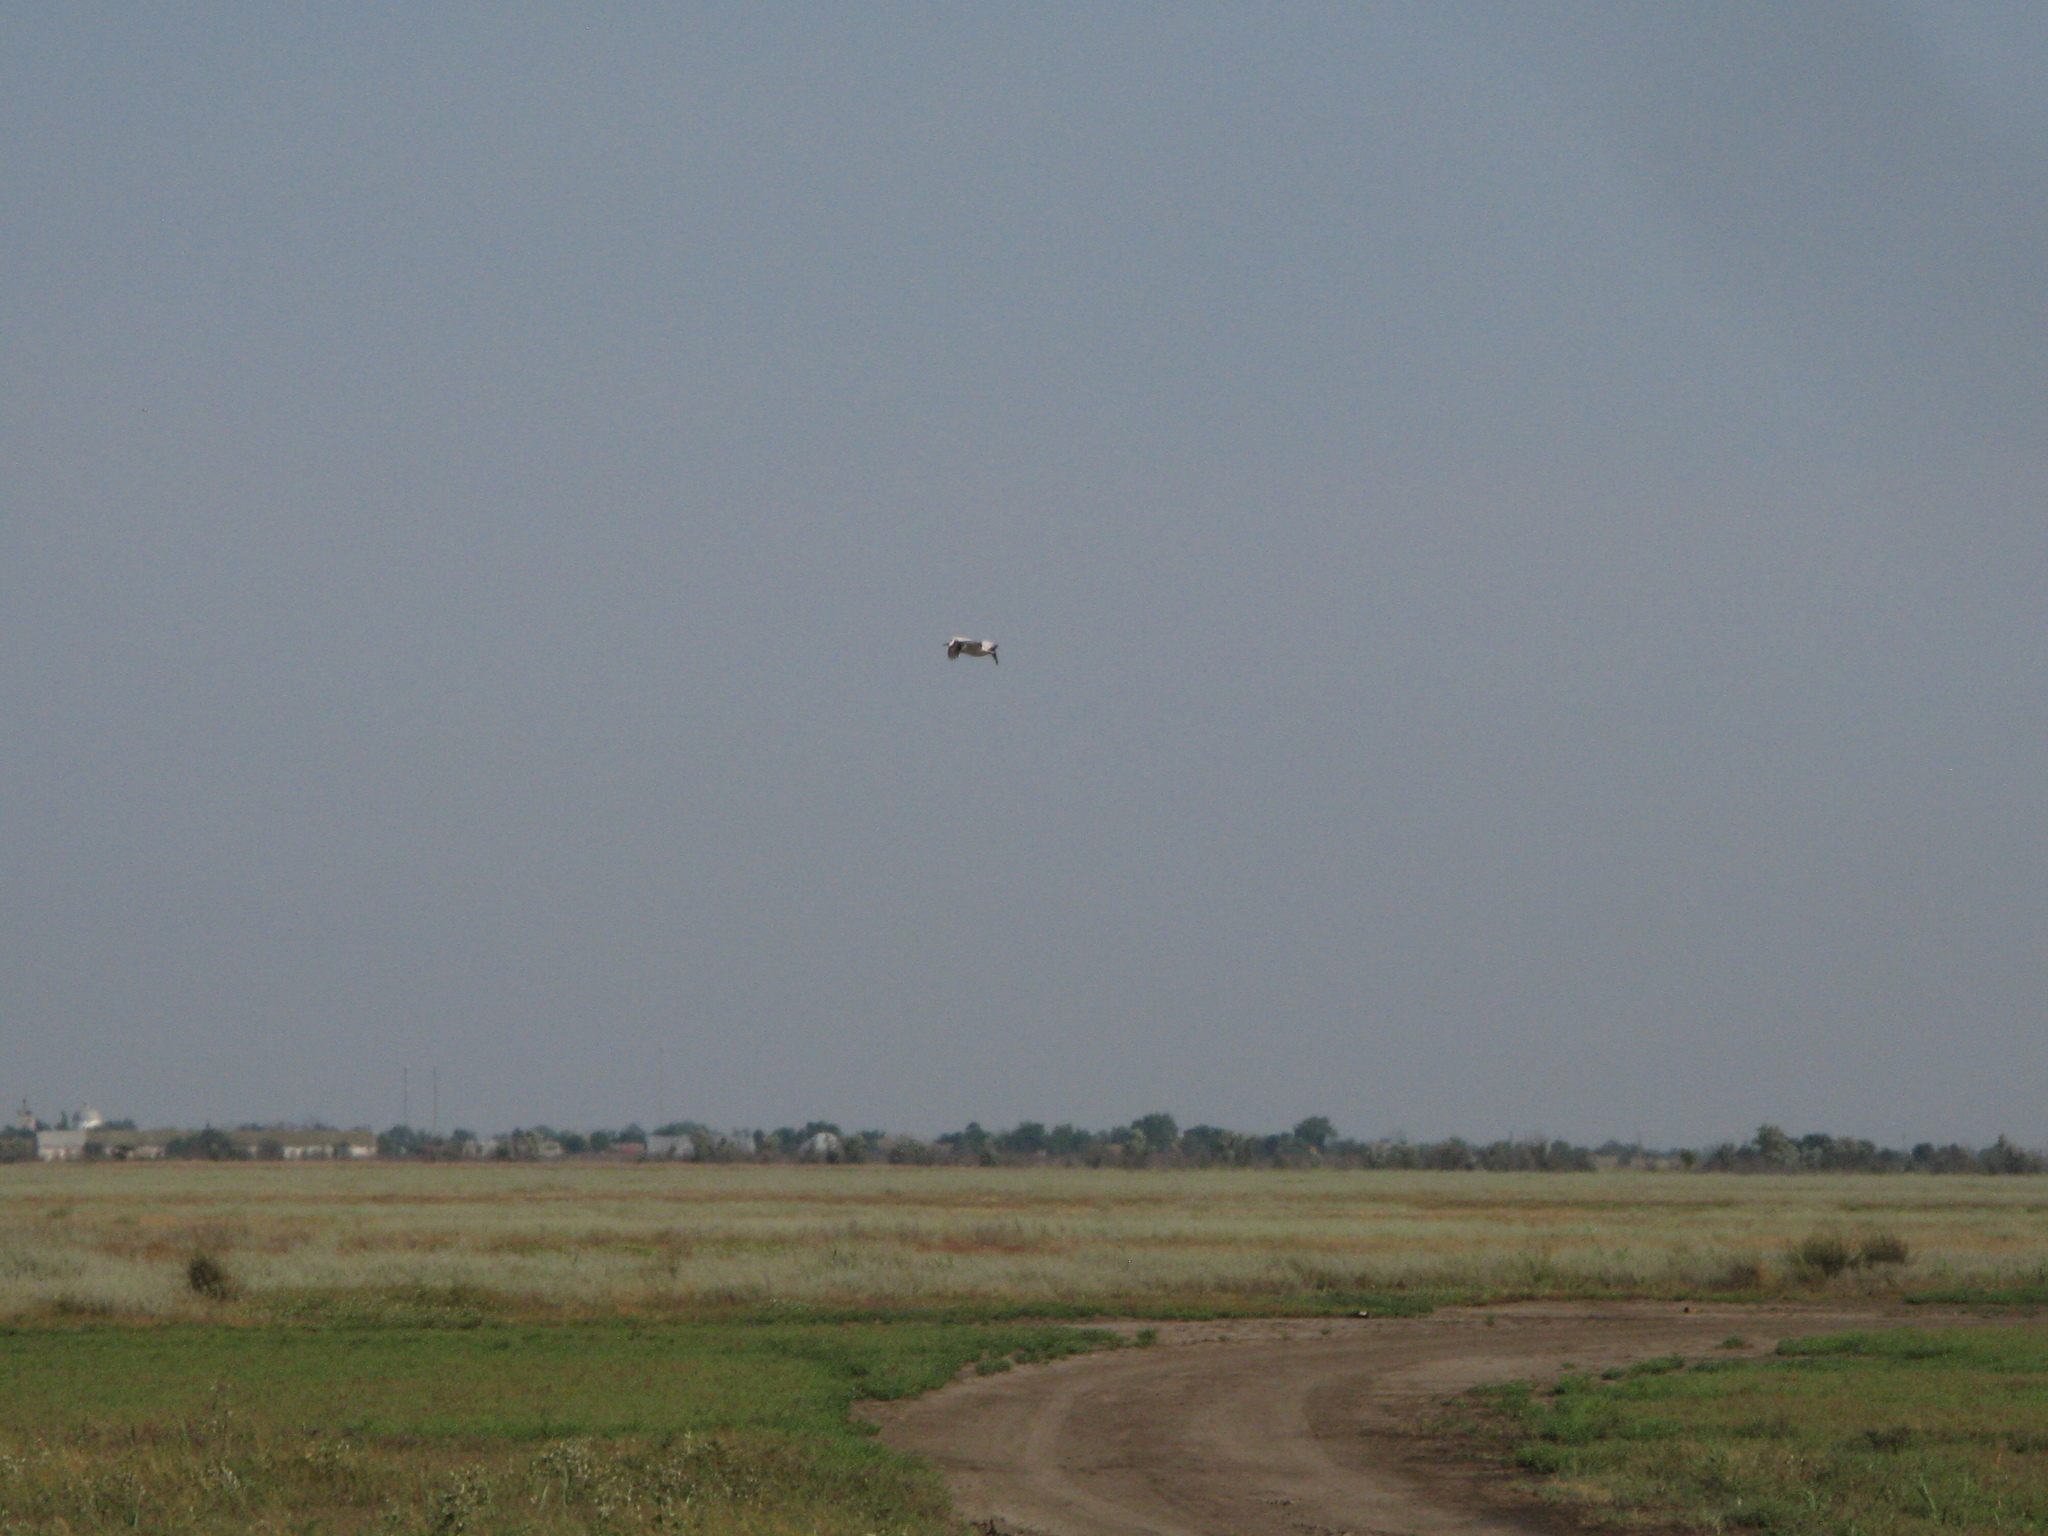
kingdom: Animalia
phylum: Chordata
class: Aves
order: Pelecaniformes
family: Pelecanidae
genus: Pelecanus
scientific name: Pelecanus onocrotalus
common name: Great white pelican
